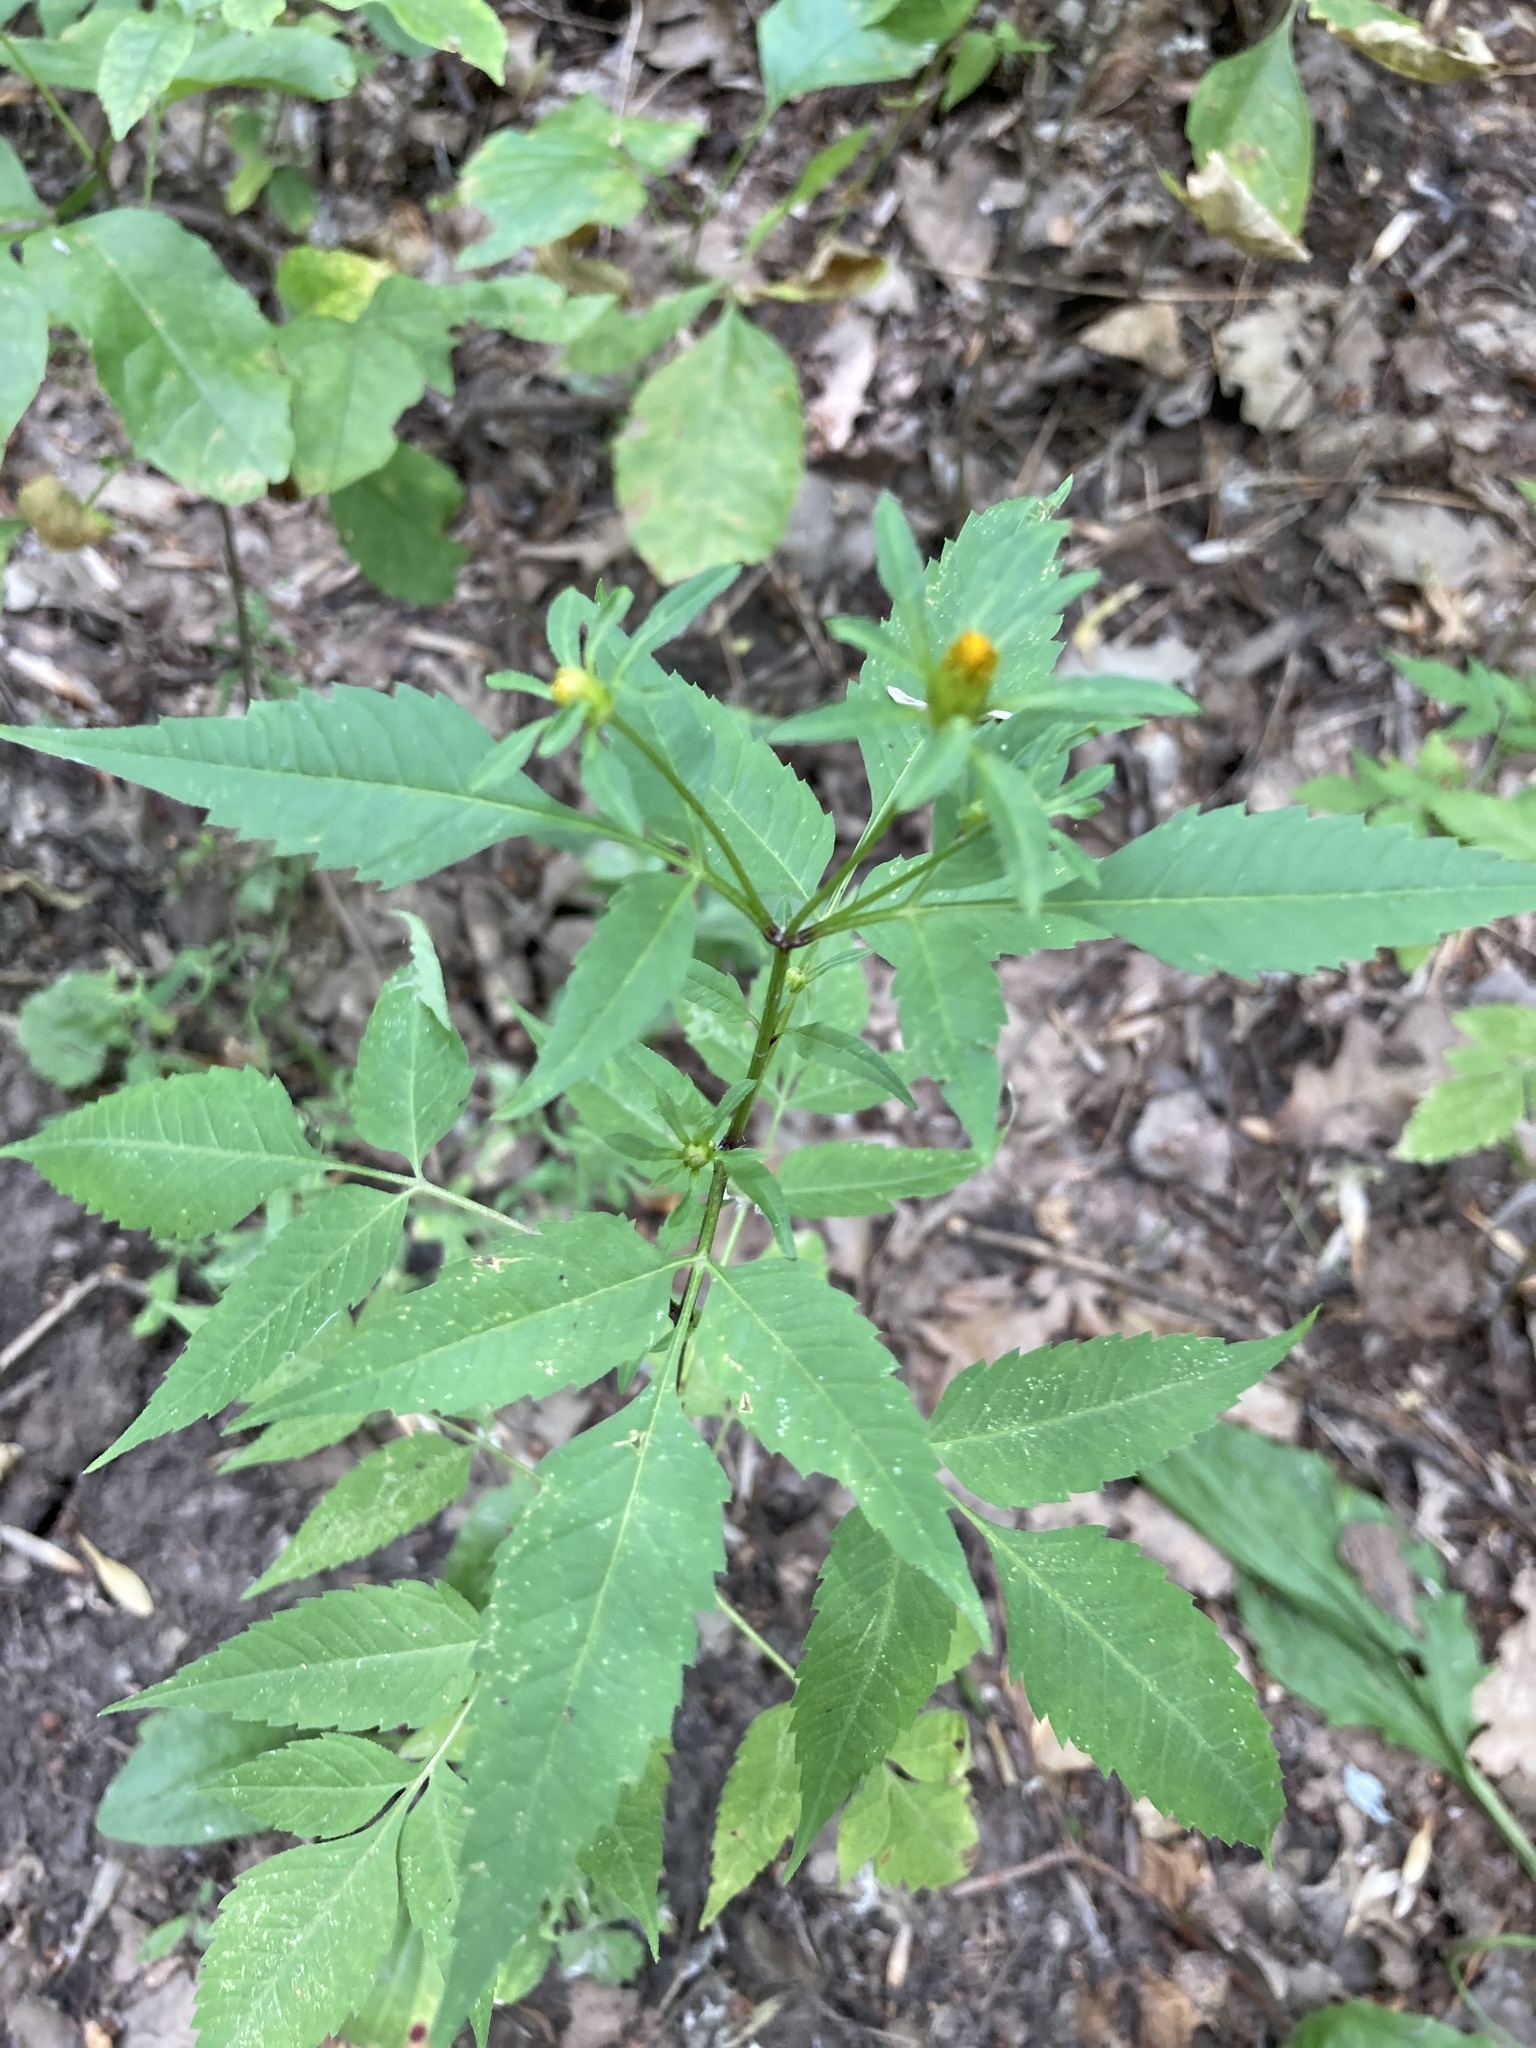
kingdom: Plantae
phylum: Tracheophyta
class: Magnoliopsida
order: Asterales
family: Asteraceae
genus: Bidens
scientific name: Bidens frondosa
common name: Beggarticks
